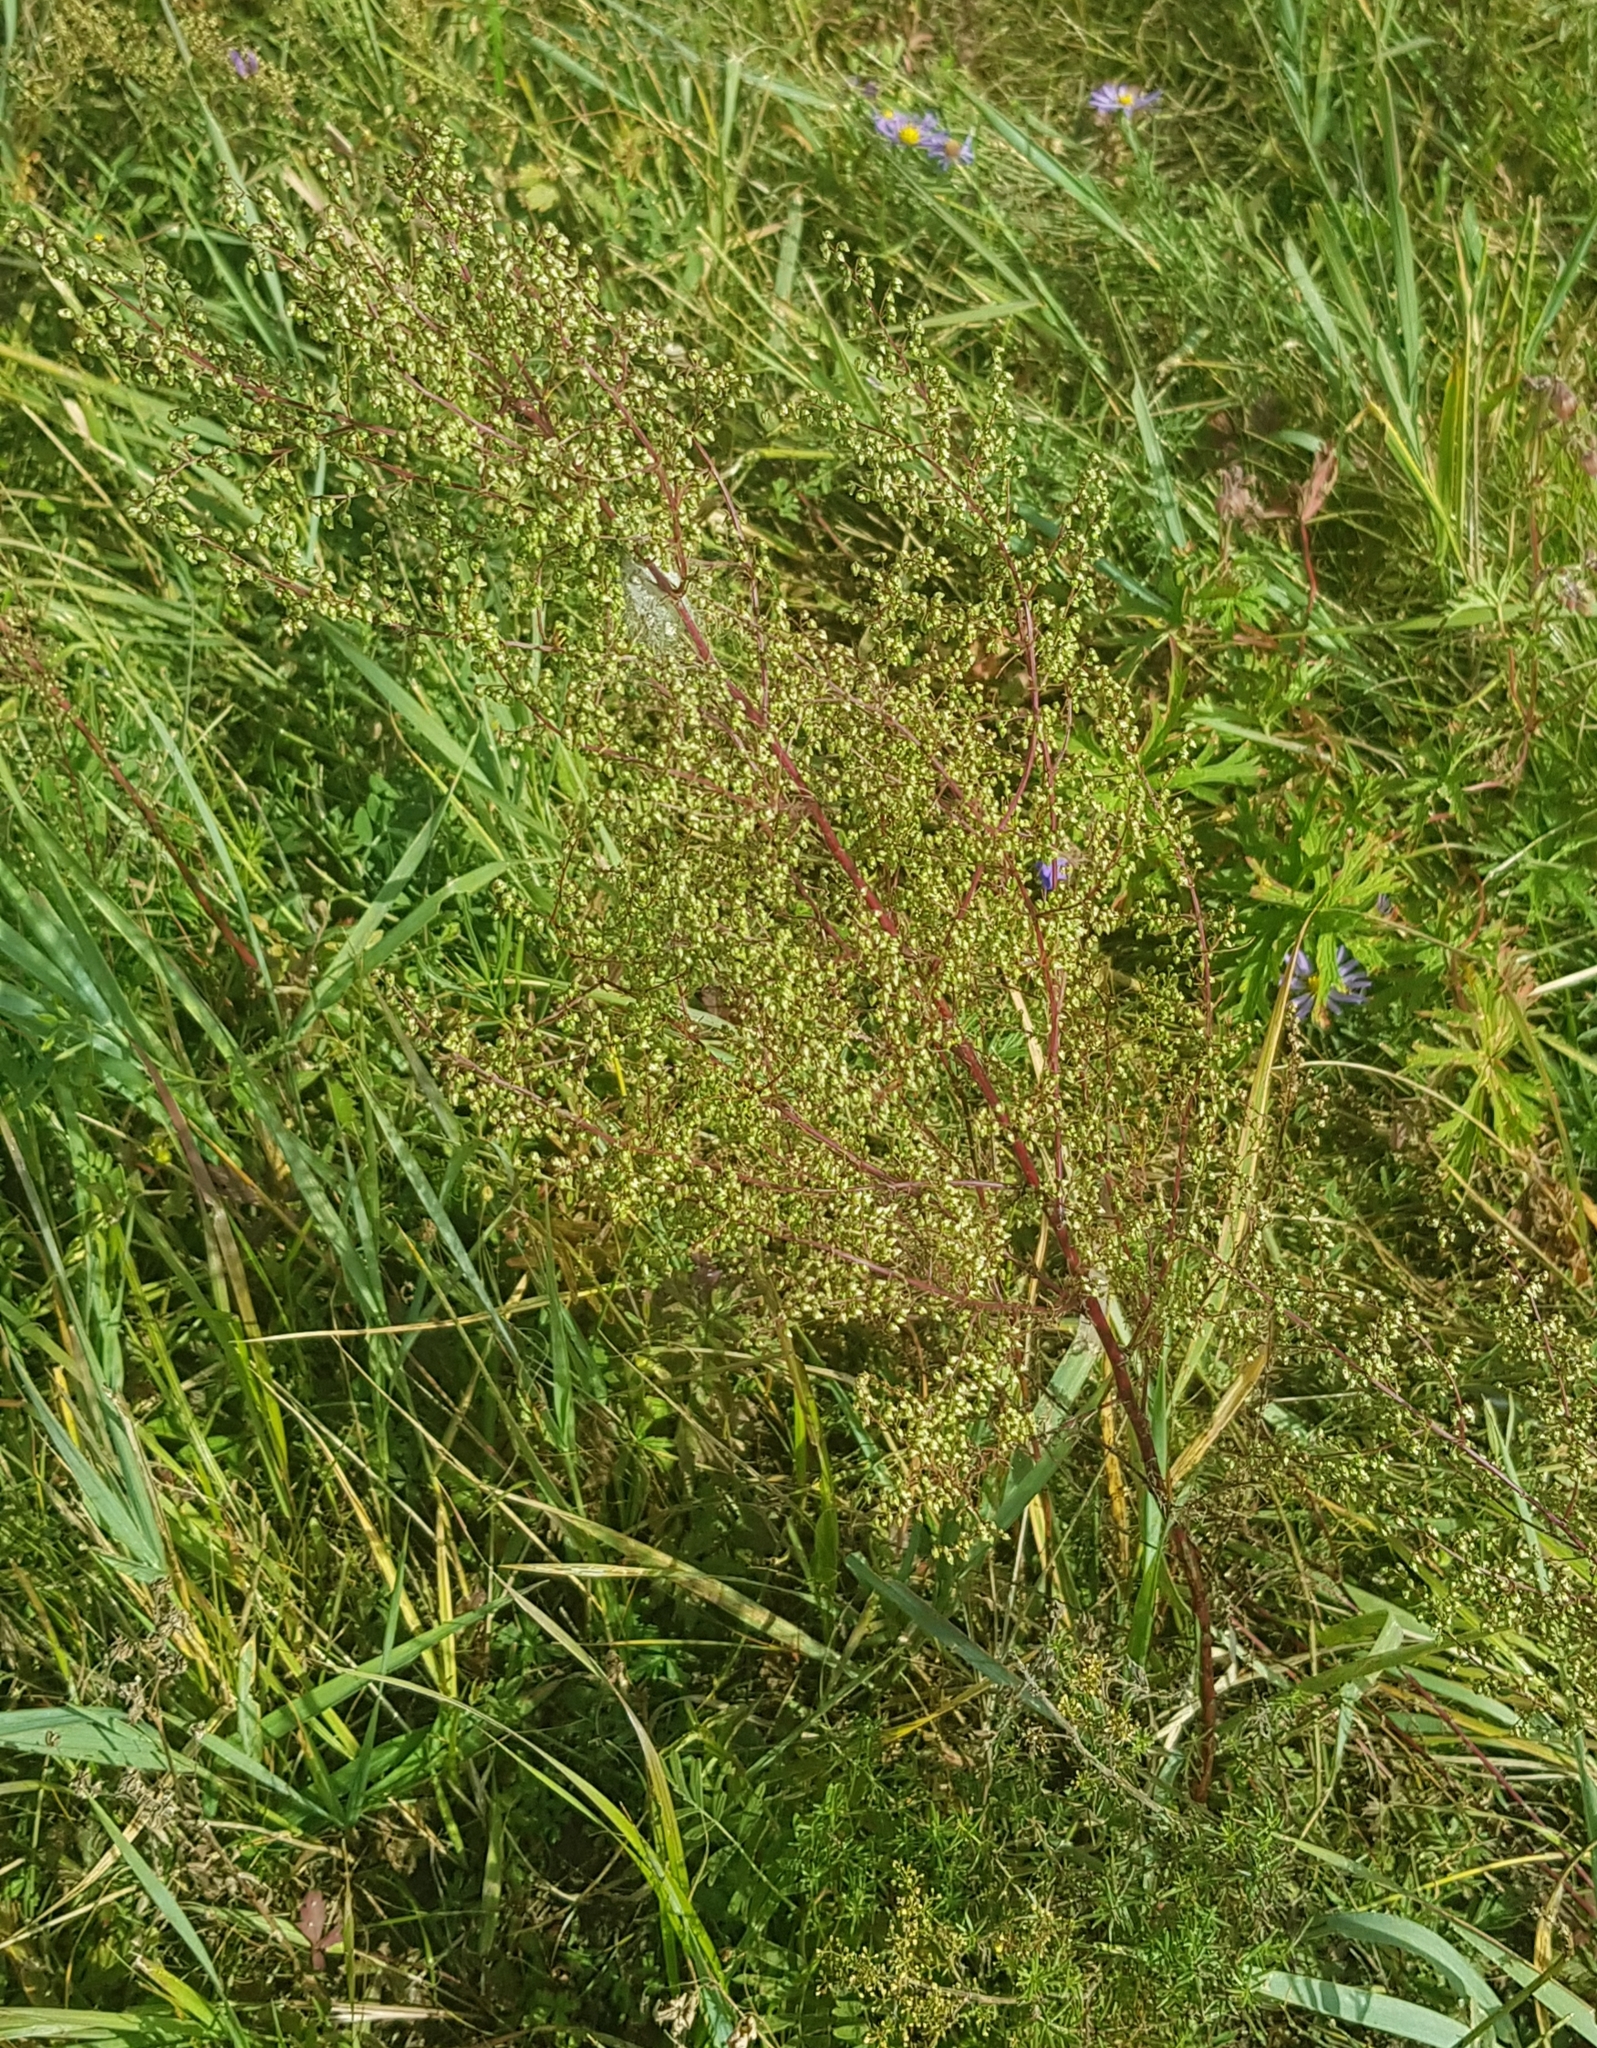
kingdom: Plantae
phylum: Tracheophyta
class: Magnoliopsida
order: Asterales
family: Asteraceae
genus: Artemisia
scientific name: Artemisia scoparia
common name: Redstem wormwood
